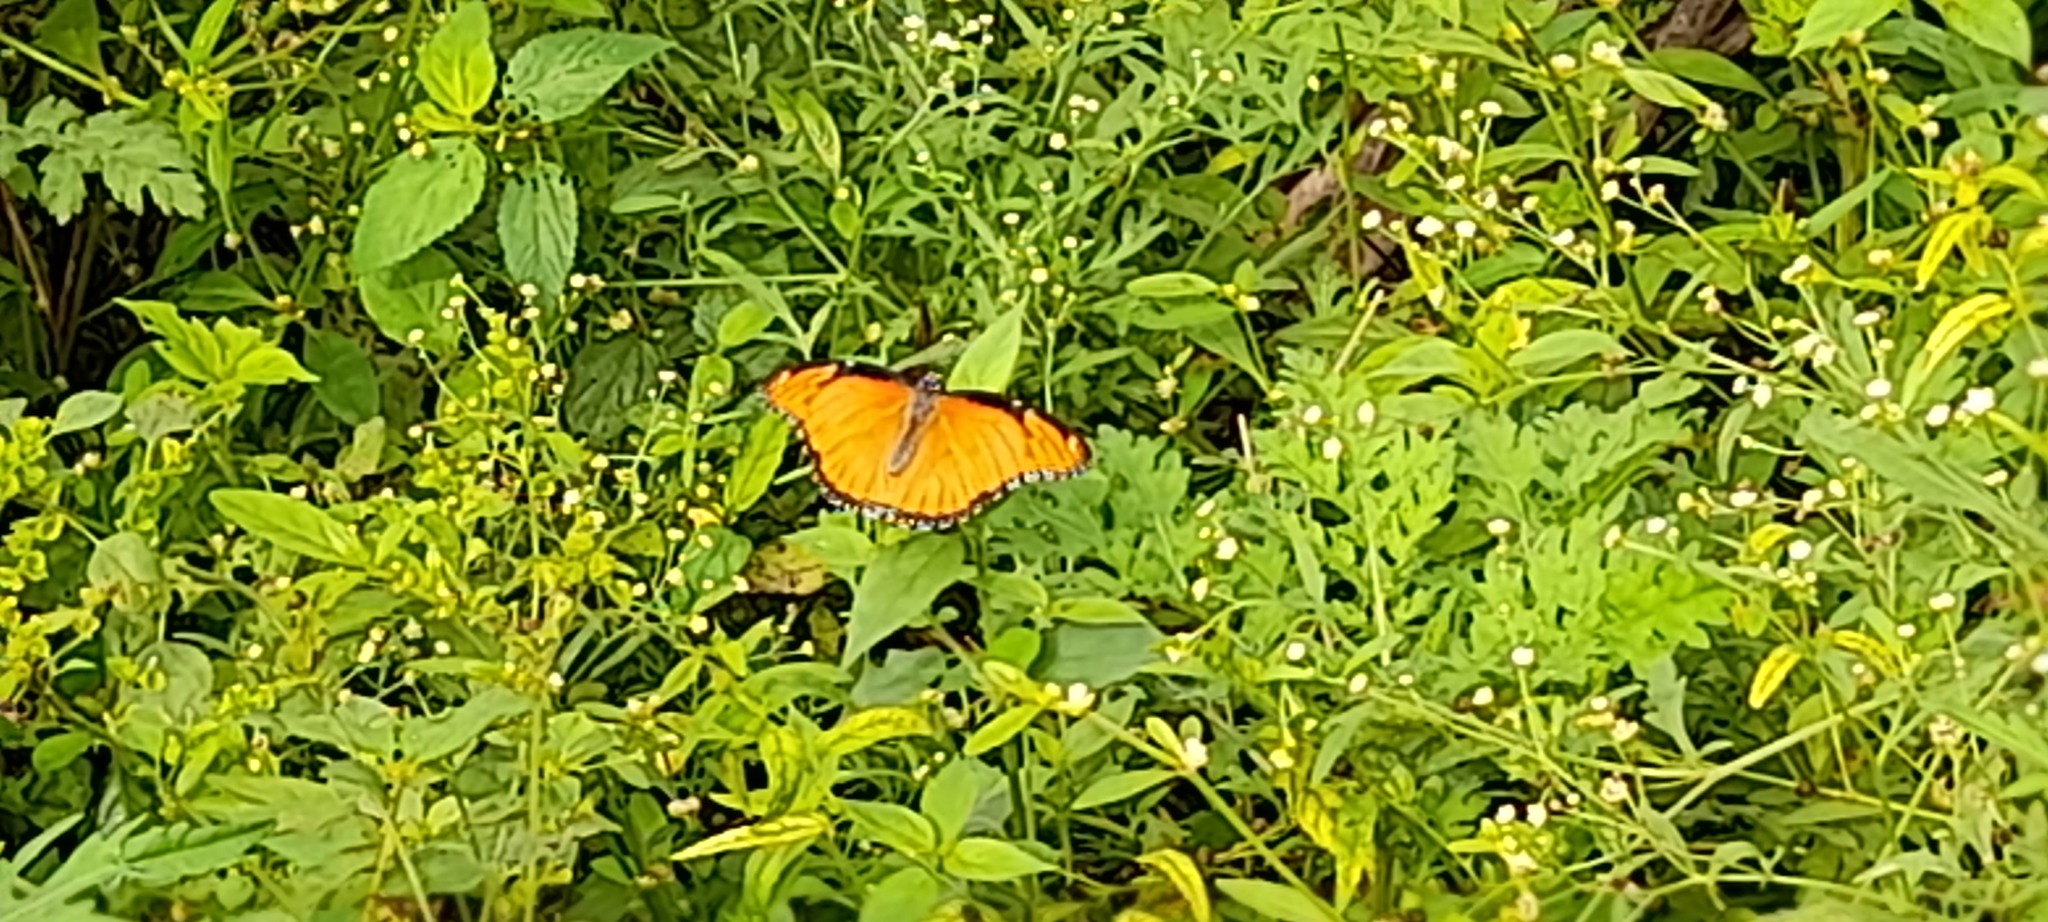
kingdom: Animalia
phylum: Arthropoda
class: Insecta
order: Lepidoptera
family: Nymphalidae
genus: Hypolimnas
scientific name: Hypolimnas misippus
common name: False plain tiger
